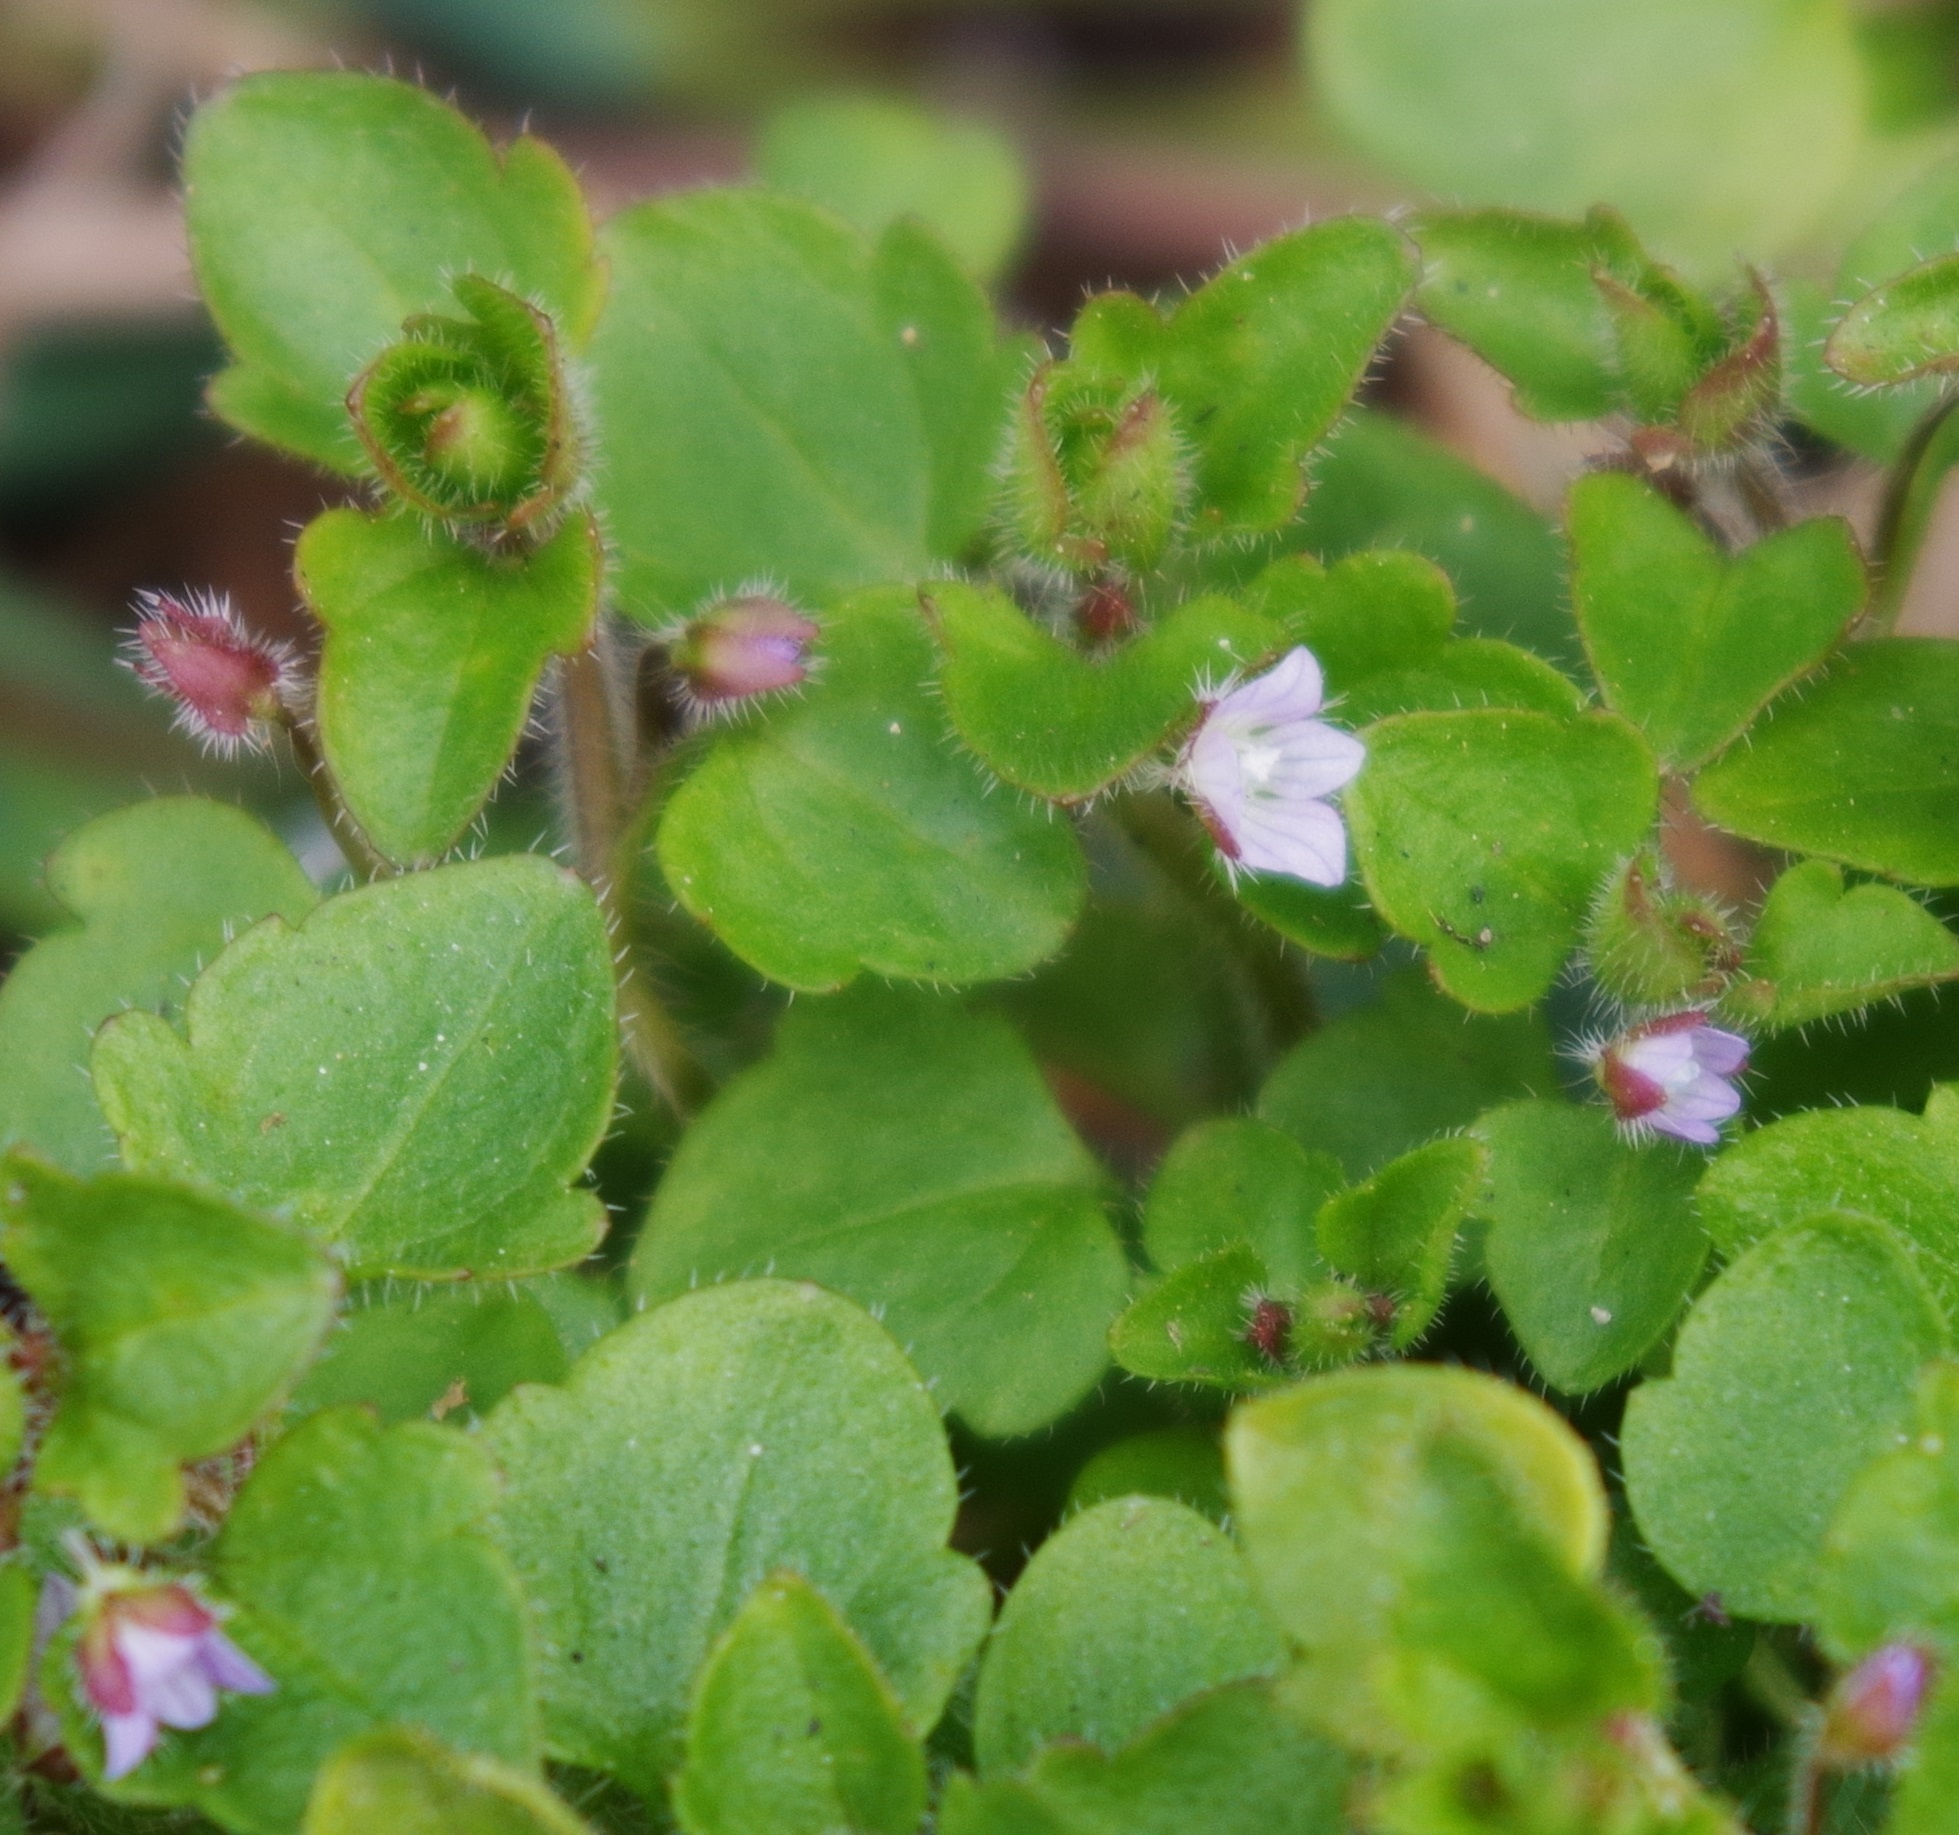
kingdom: Plantae
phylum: Tracheophyta
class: Magnoliopsida
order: Lamiales
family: Plantaginaceae
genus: Veronica
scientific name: Veronica sublobata
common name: False ivy-leaved speedwell
